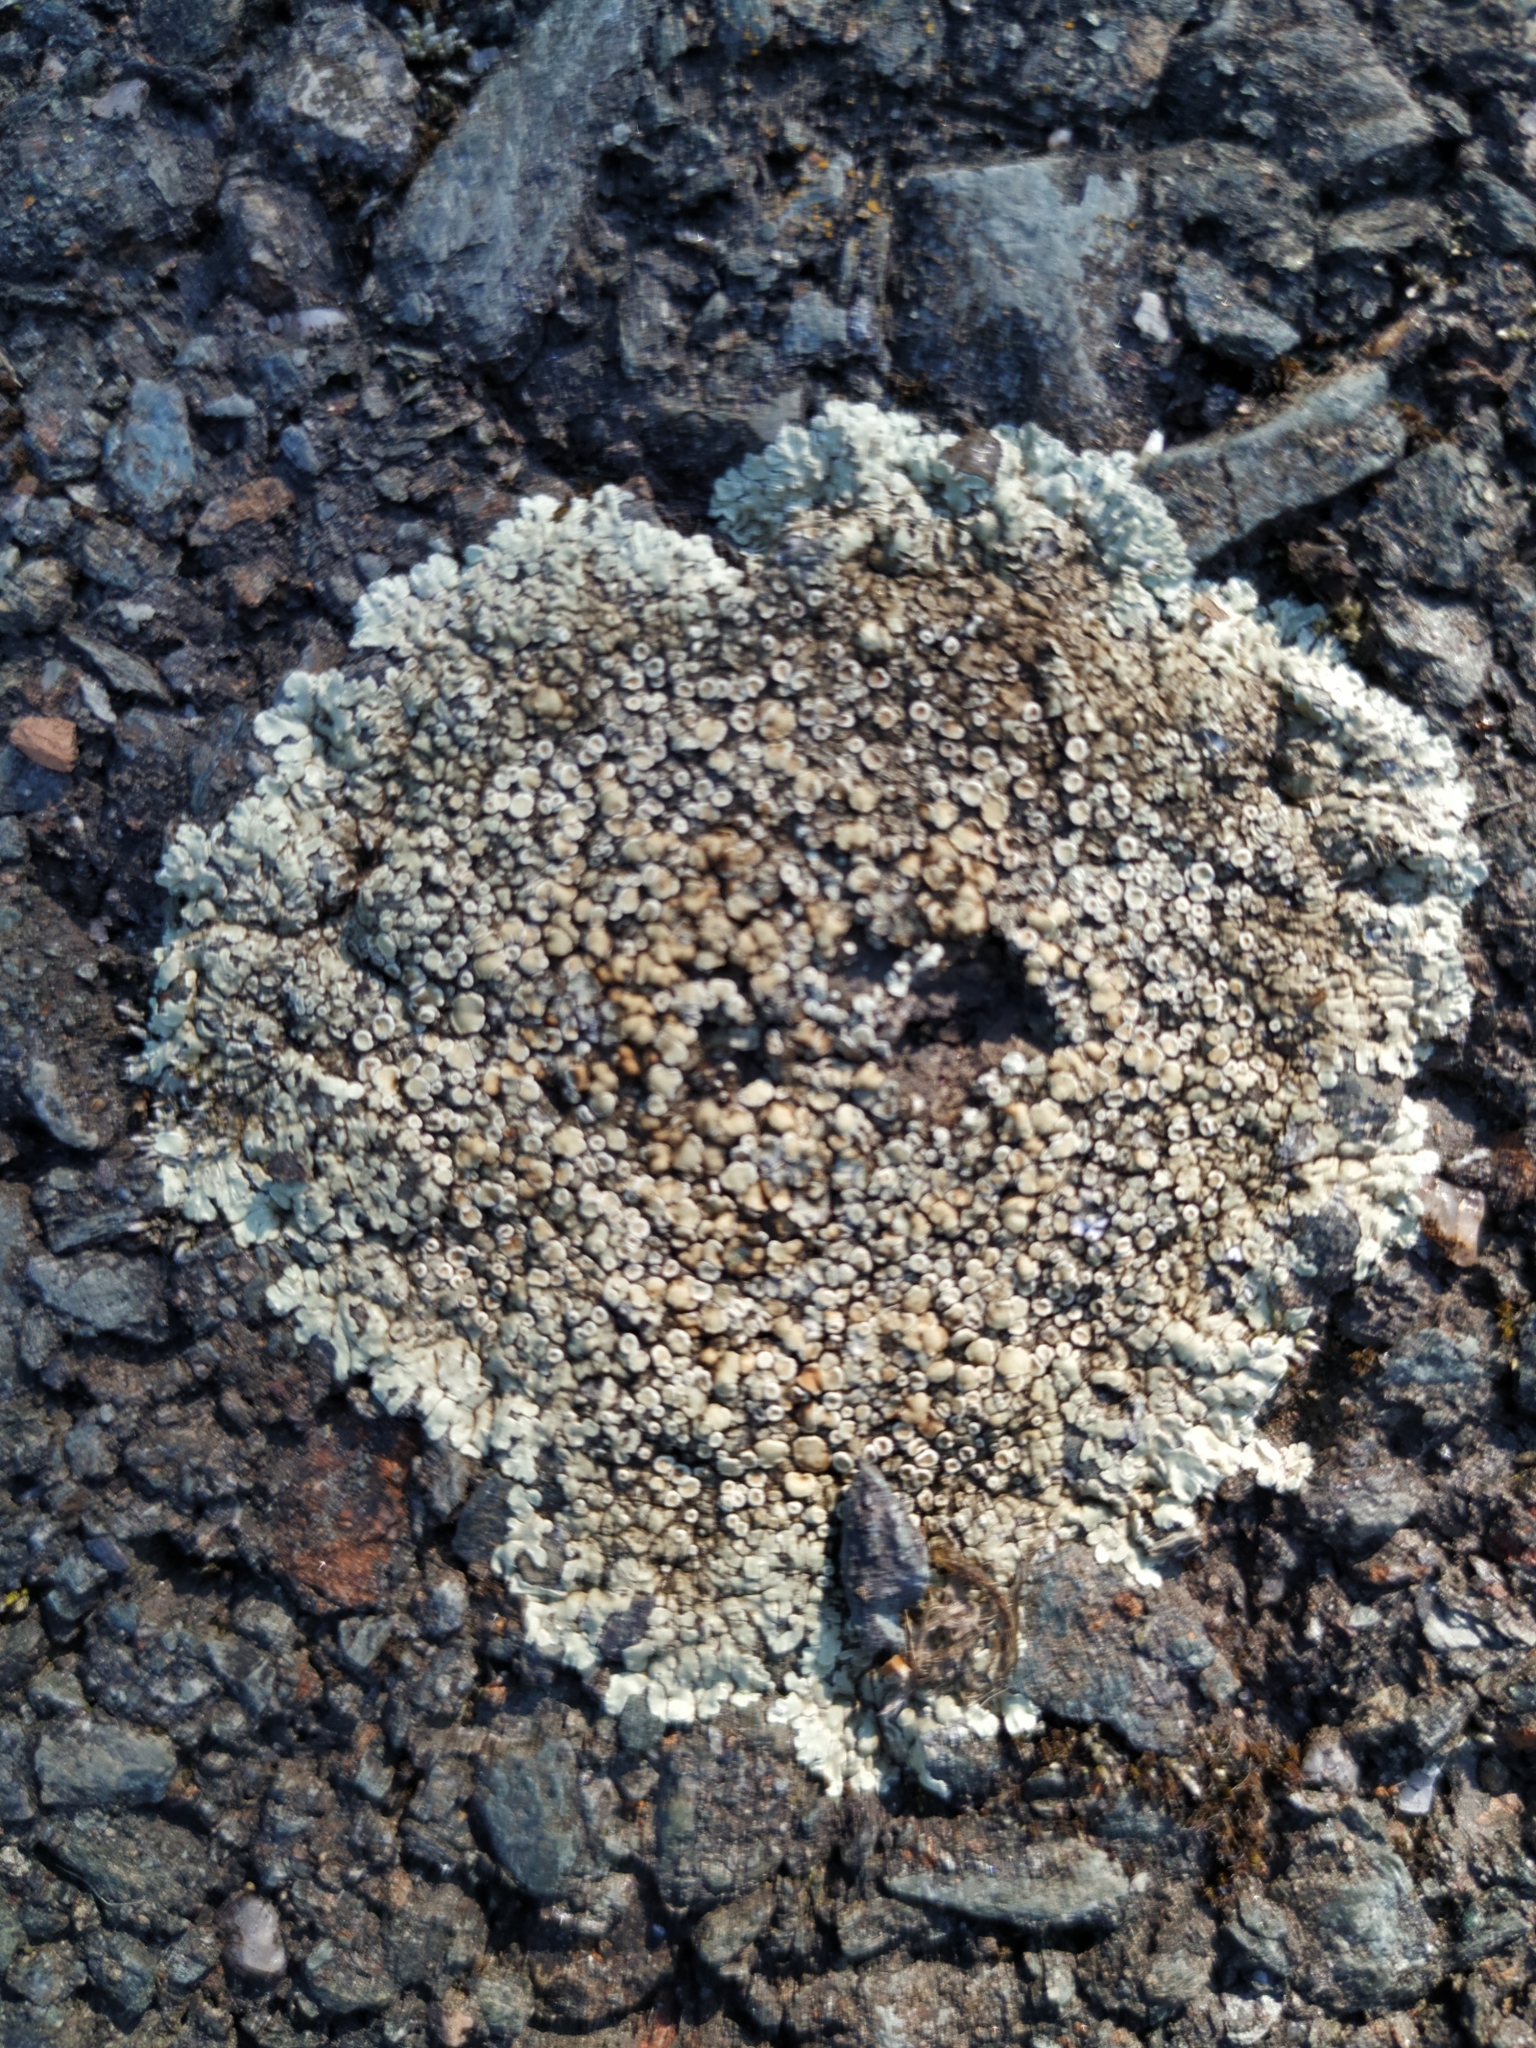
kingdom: Fungi
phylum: Ascomycota
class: Lecanoromycetes
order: Lecanorales
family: Lecanoraceae
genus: Protoparmeliopsis
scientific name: Protoparmeliopsis muralis
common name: Stonewall rim lichen
